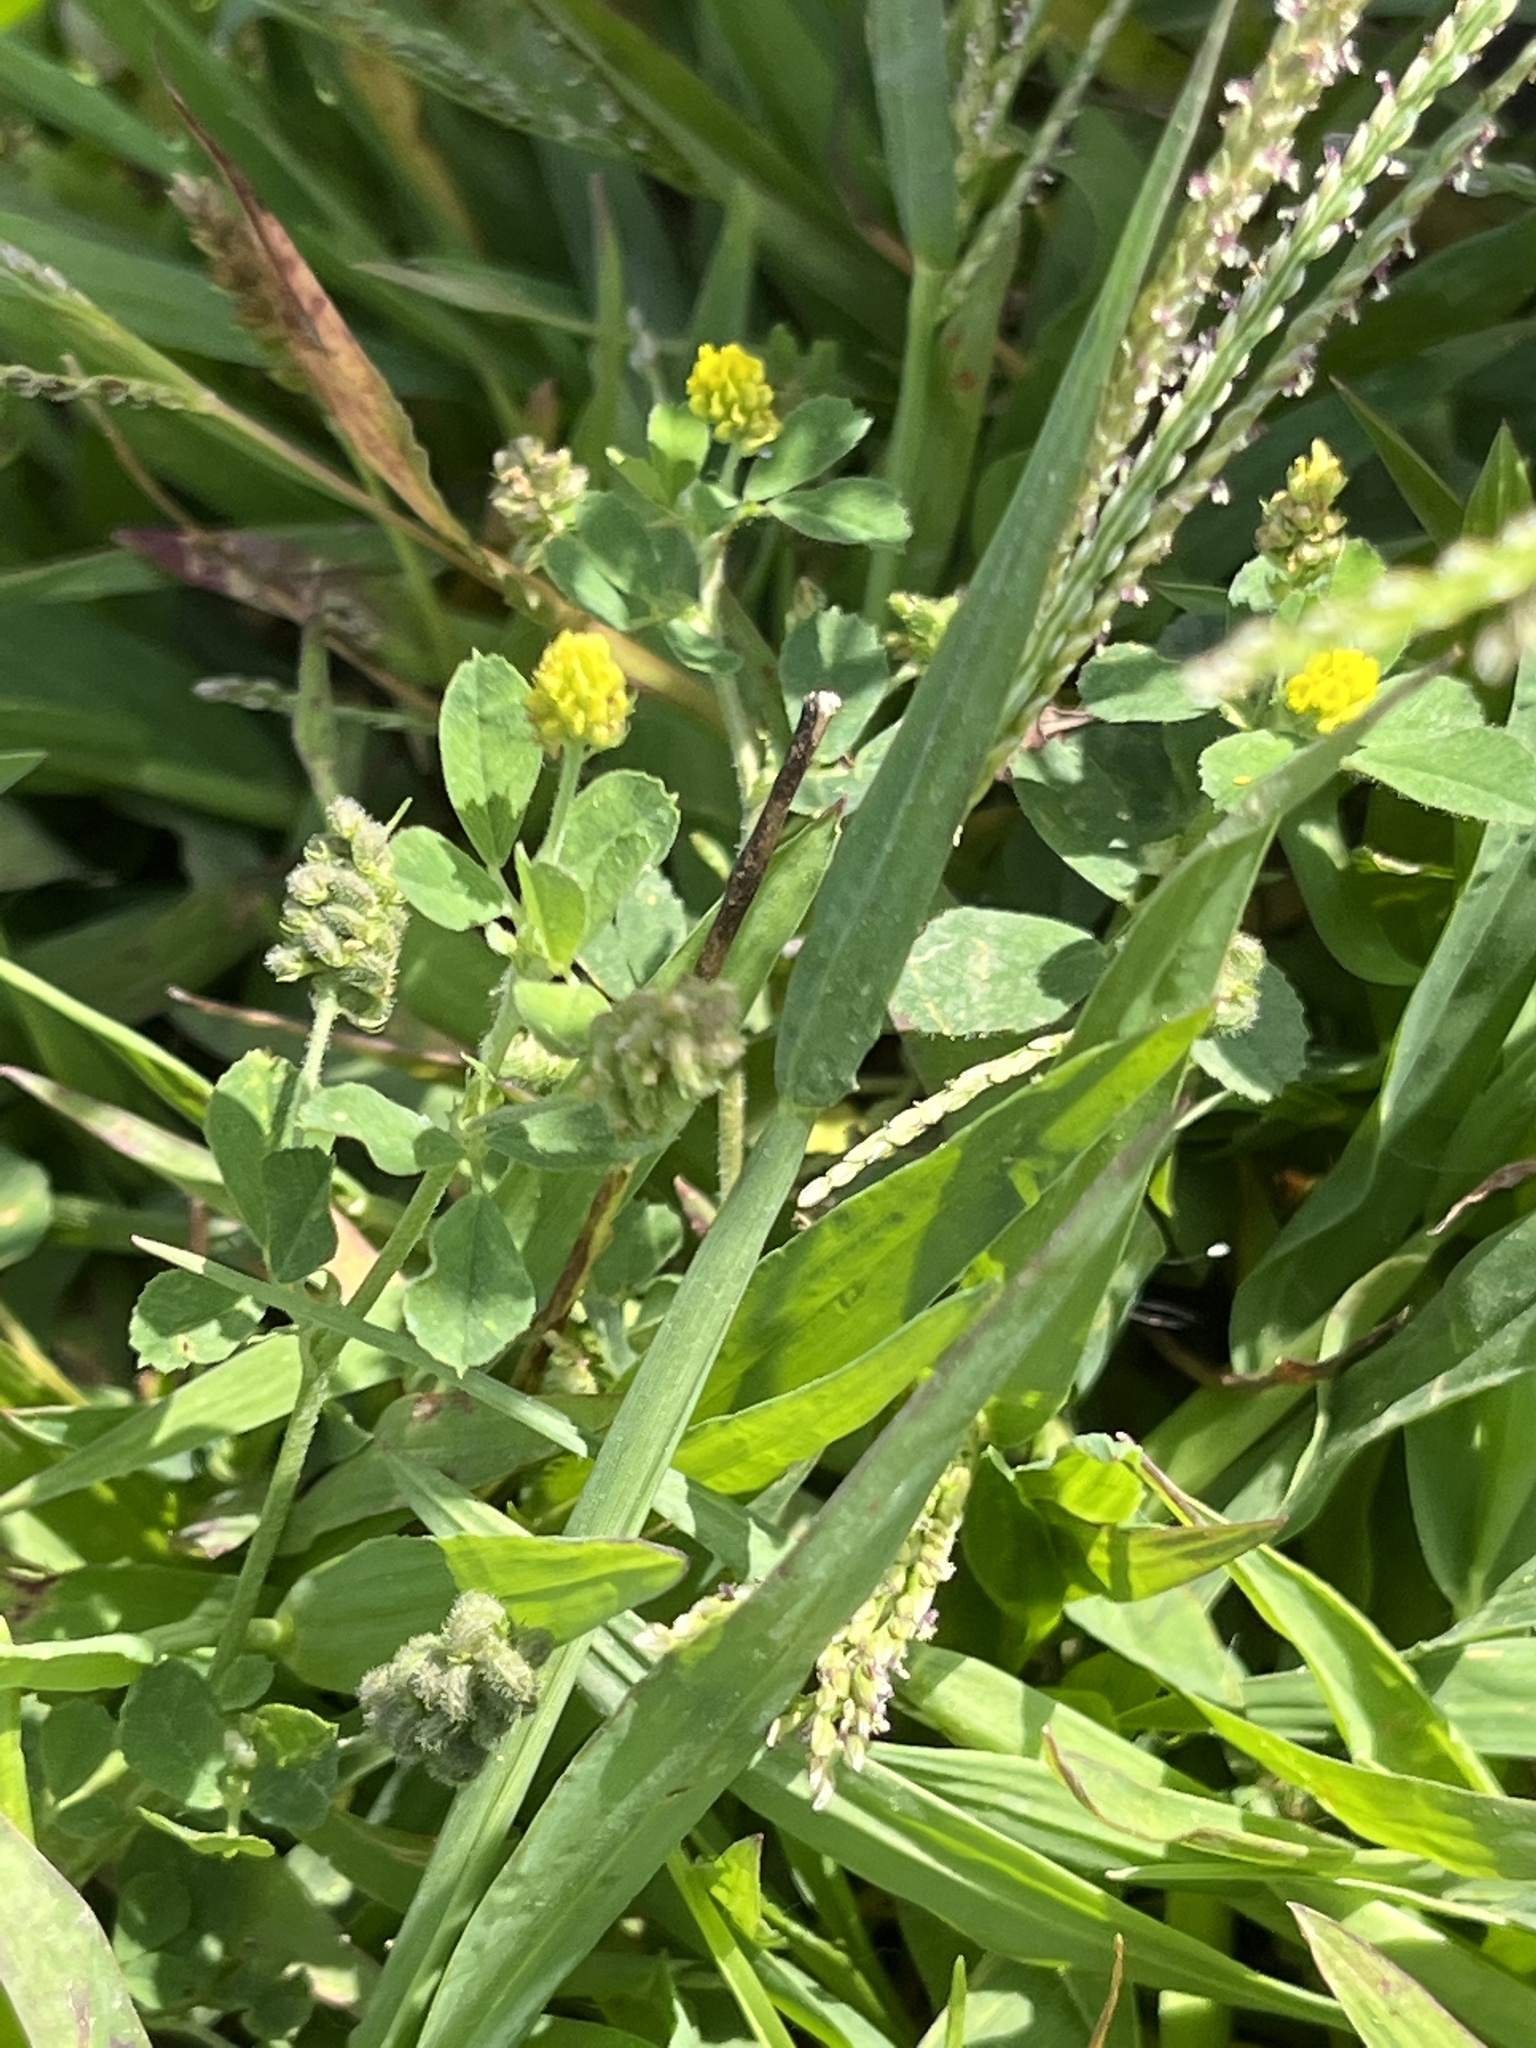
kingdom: Plantae
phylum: Tracheophyta
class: Magnoliopsida
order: Fabales
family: Fabaceae
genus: Medicago
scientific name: Medicago lupulina
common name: Black medick
